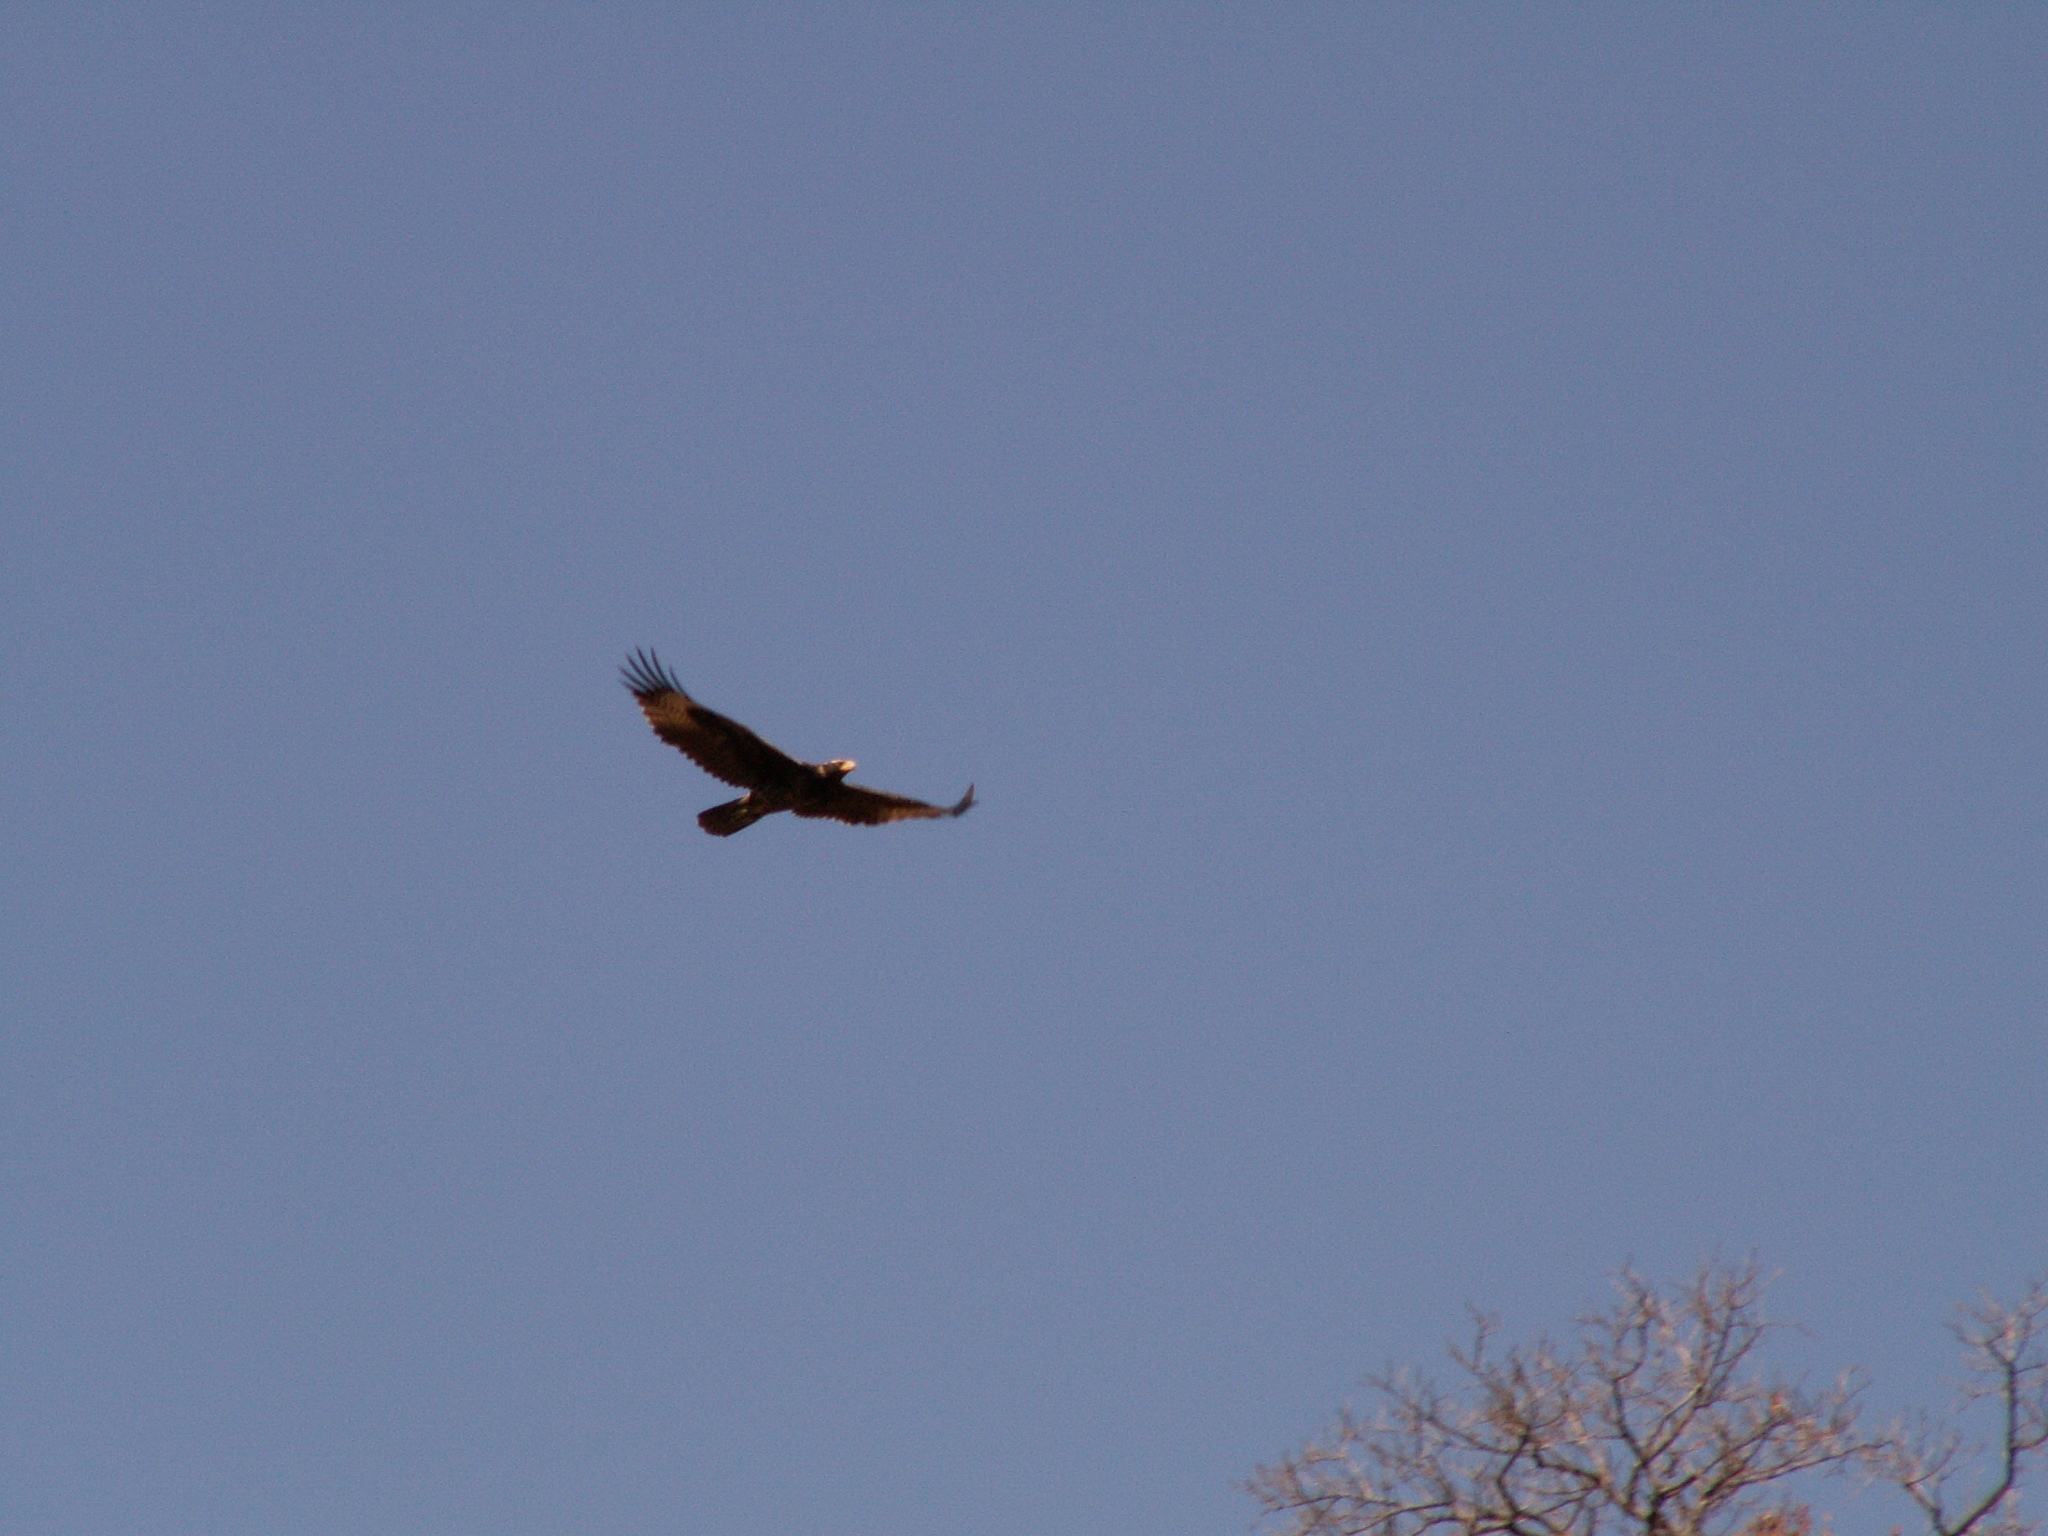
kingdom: Animalia
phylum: Chordata
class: Aves
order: Accipitriformes
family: Accipitridae
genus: Aquila
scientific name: Aquila verreauxii
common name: Verreaux's eagle
